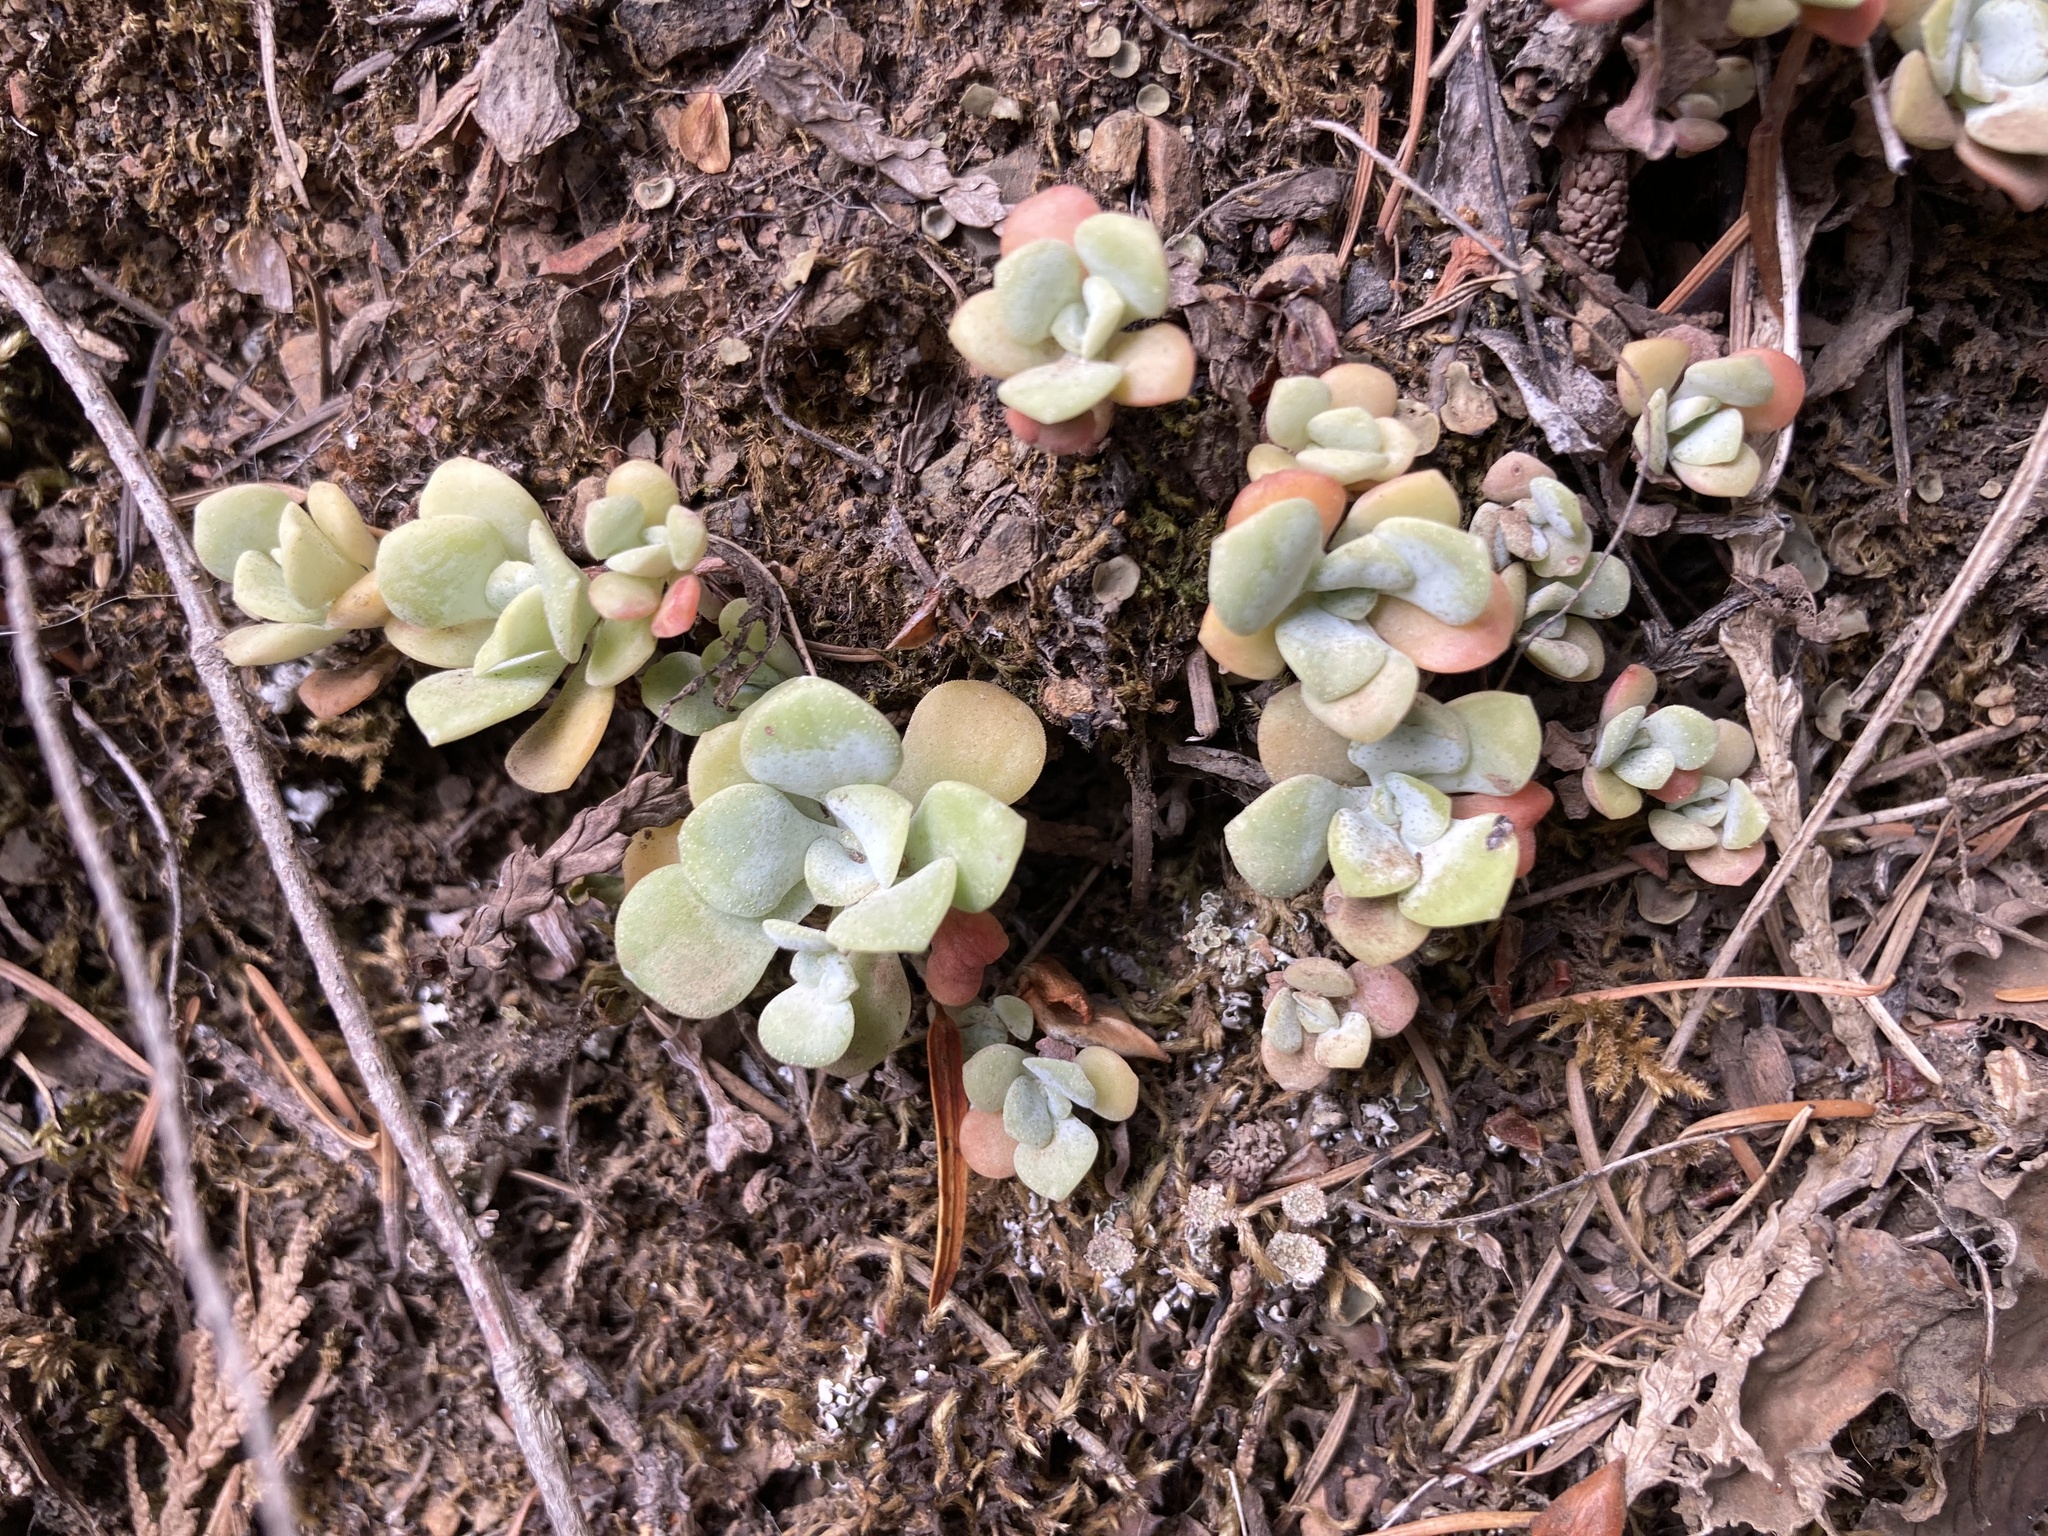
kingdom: Plantae
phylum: Tracheophyta
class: Magnoliopsida
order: Saxifragales
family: Crassulaceae
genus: Sedum
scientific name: Sedum spathulifolium
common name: Colorado stonecrop
